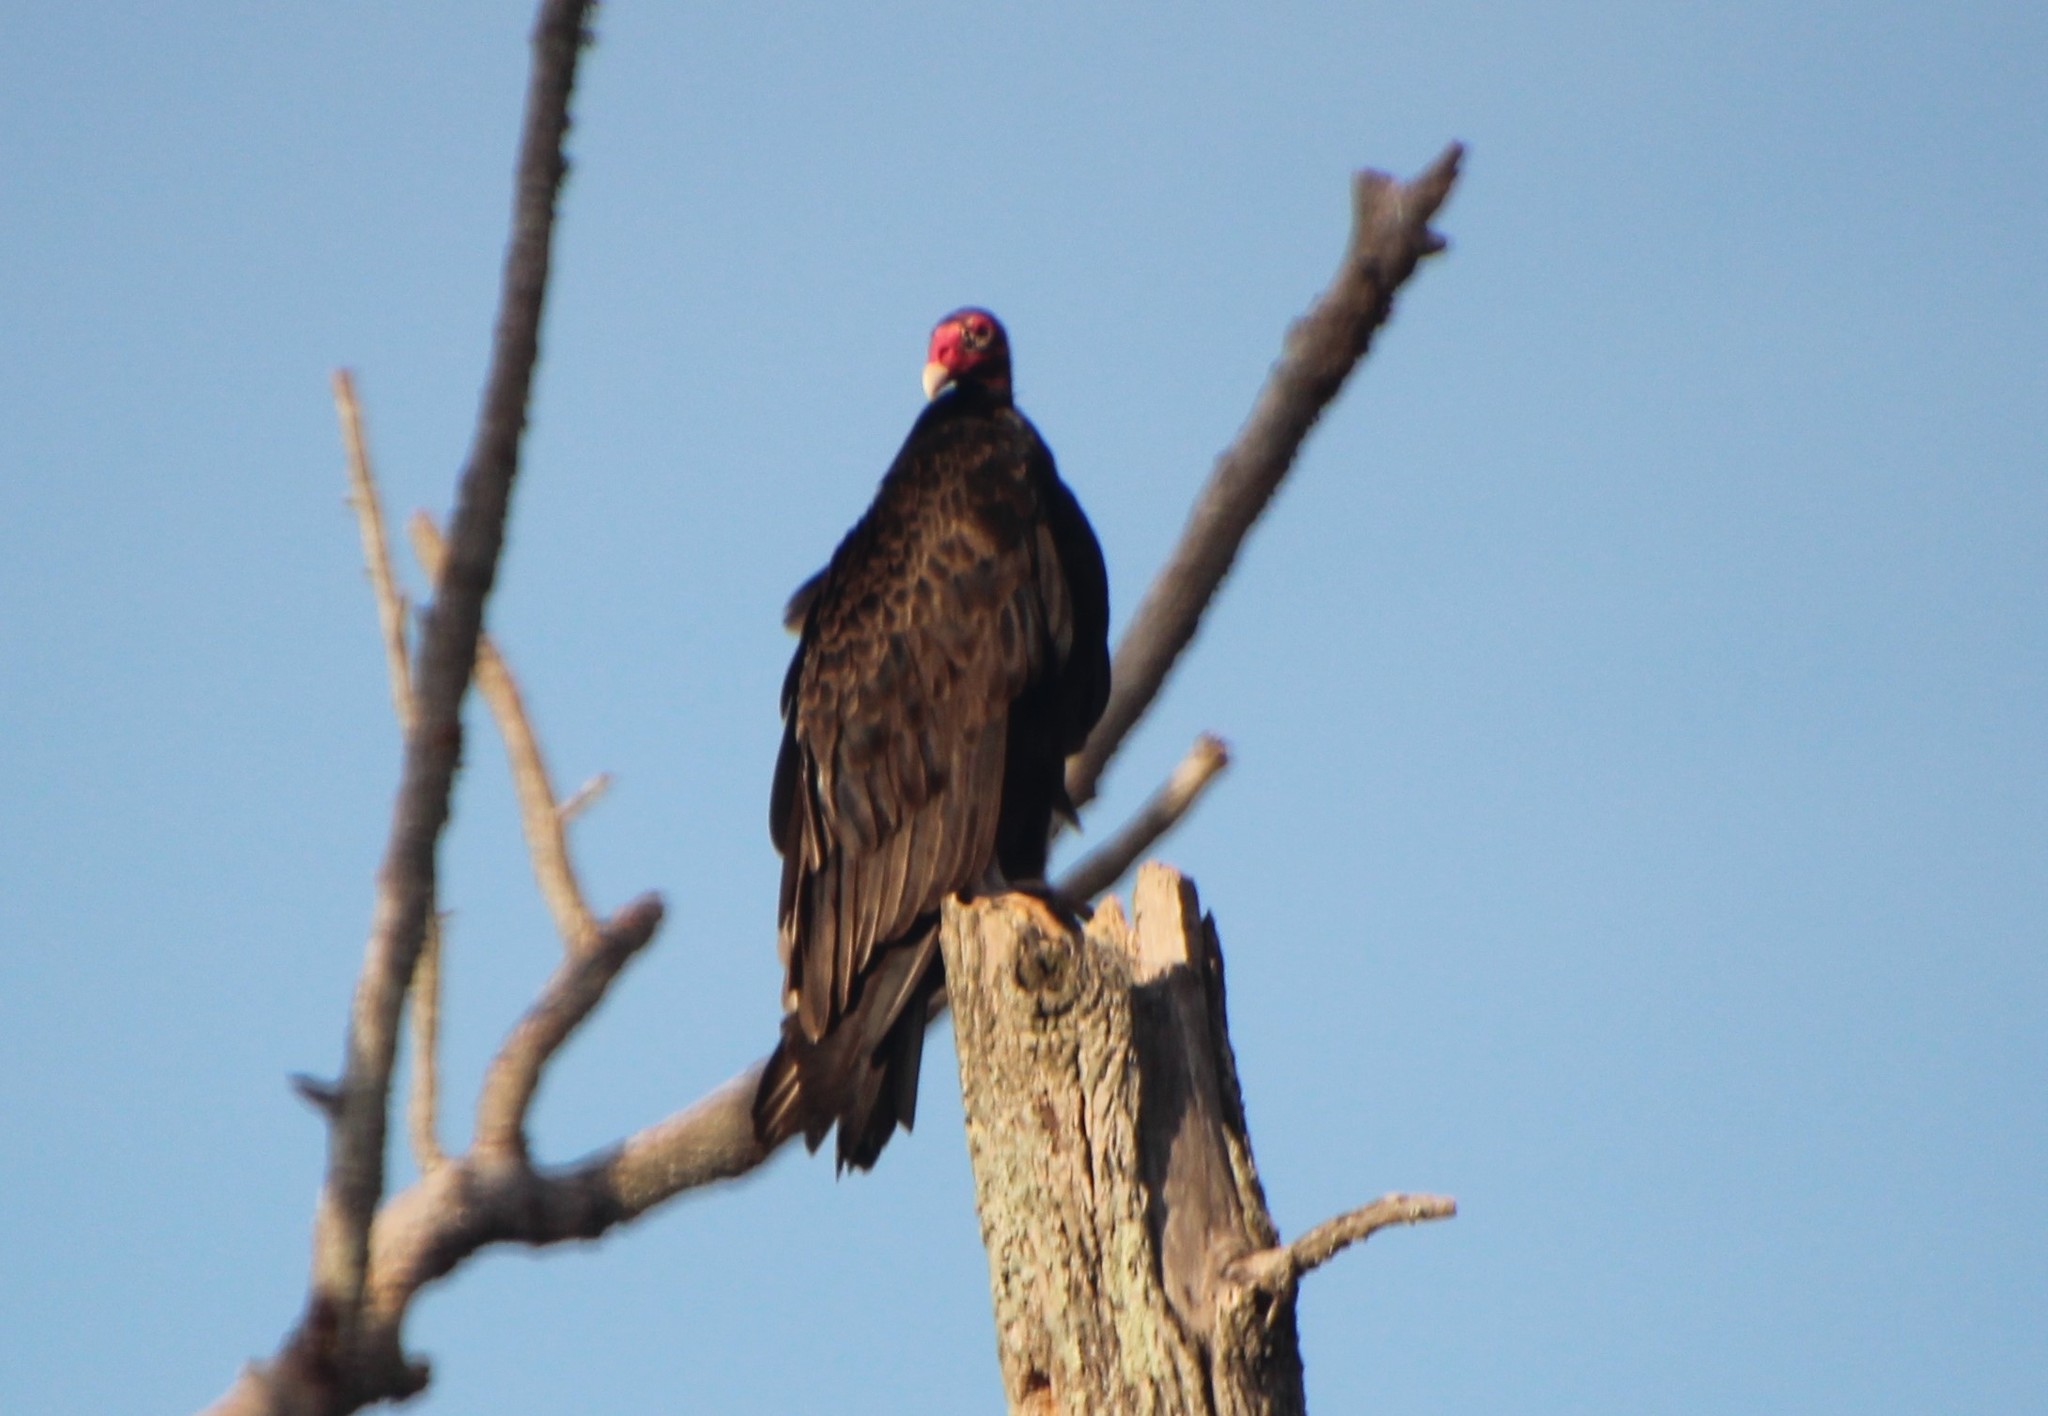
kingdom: Animalia
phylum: Chordata
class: Aves
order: Accipitriformes
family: Cathartidae
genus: Cathartes
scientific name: Cathartes aura
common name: Turkey vulture
